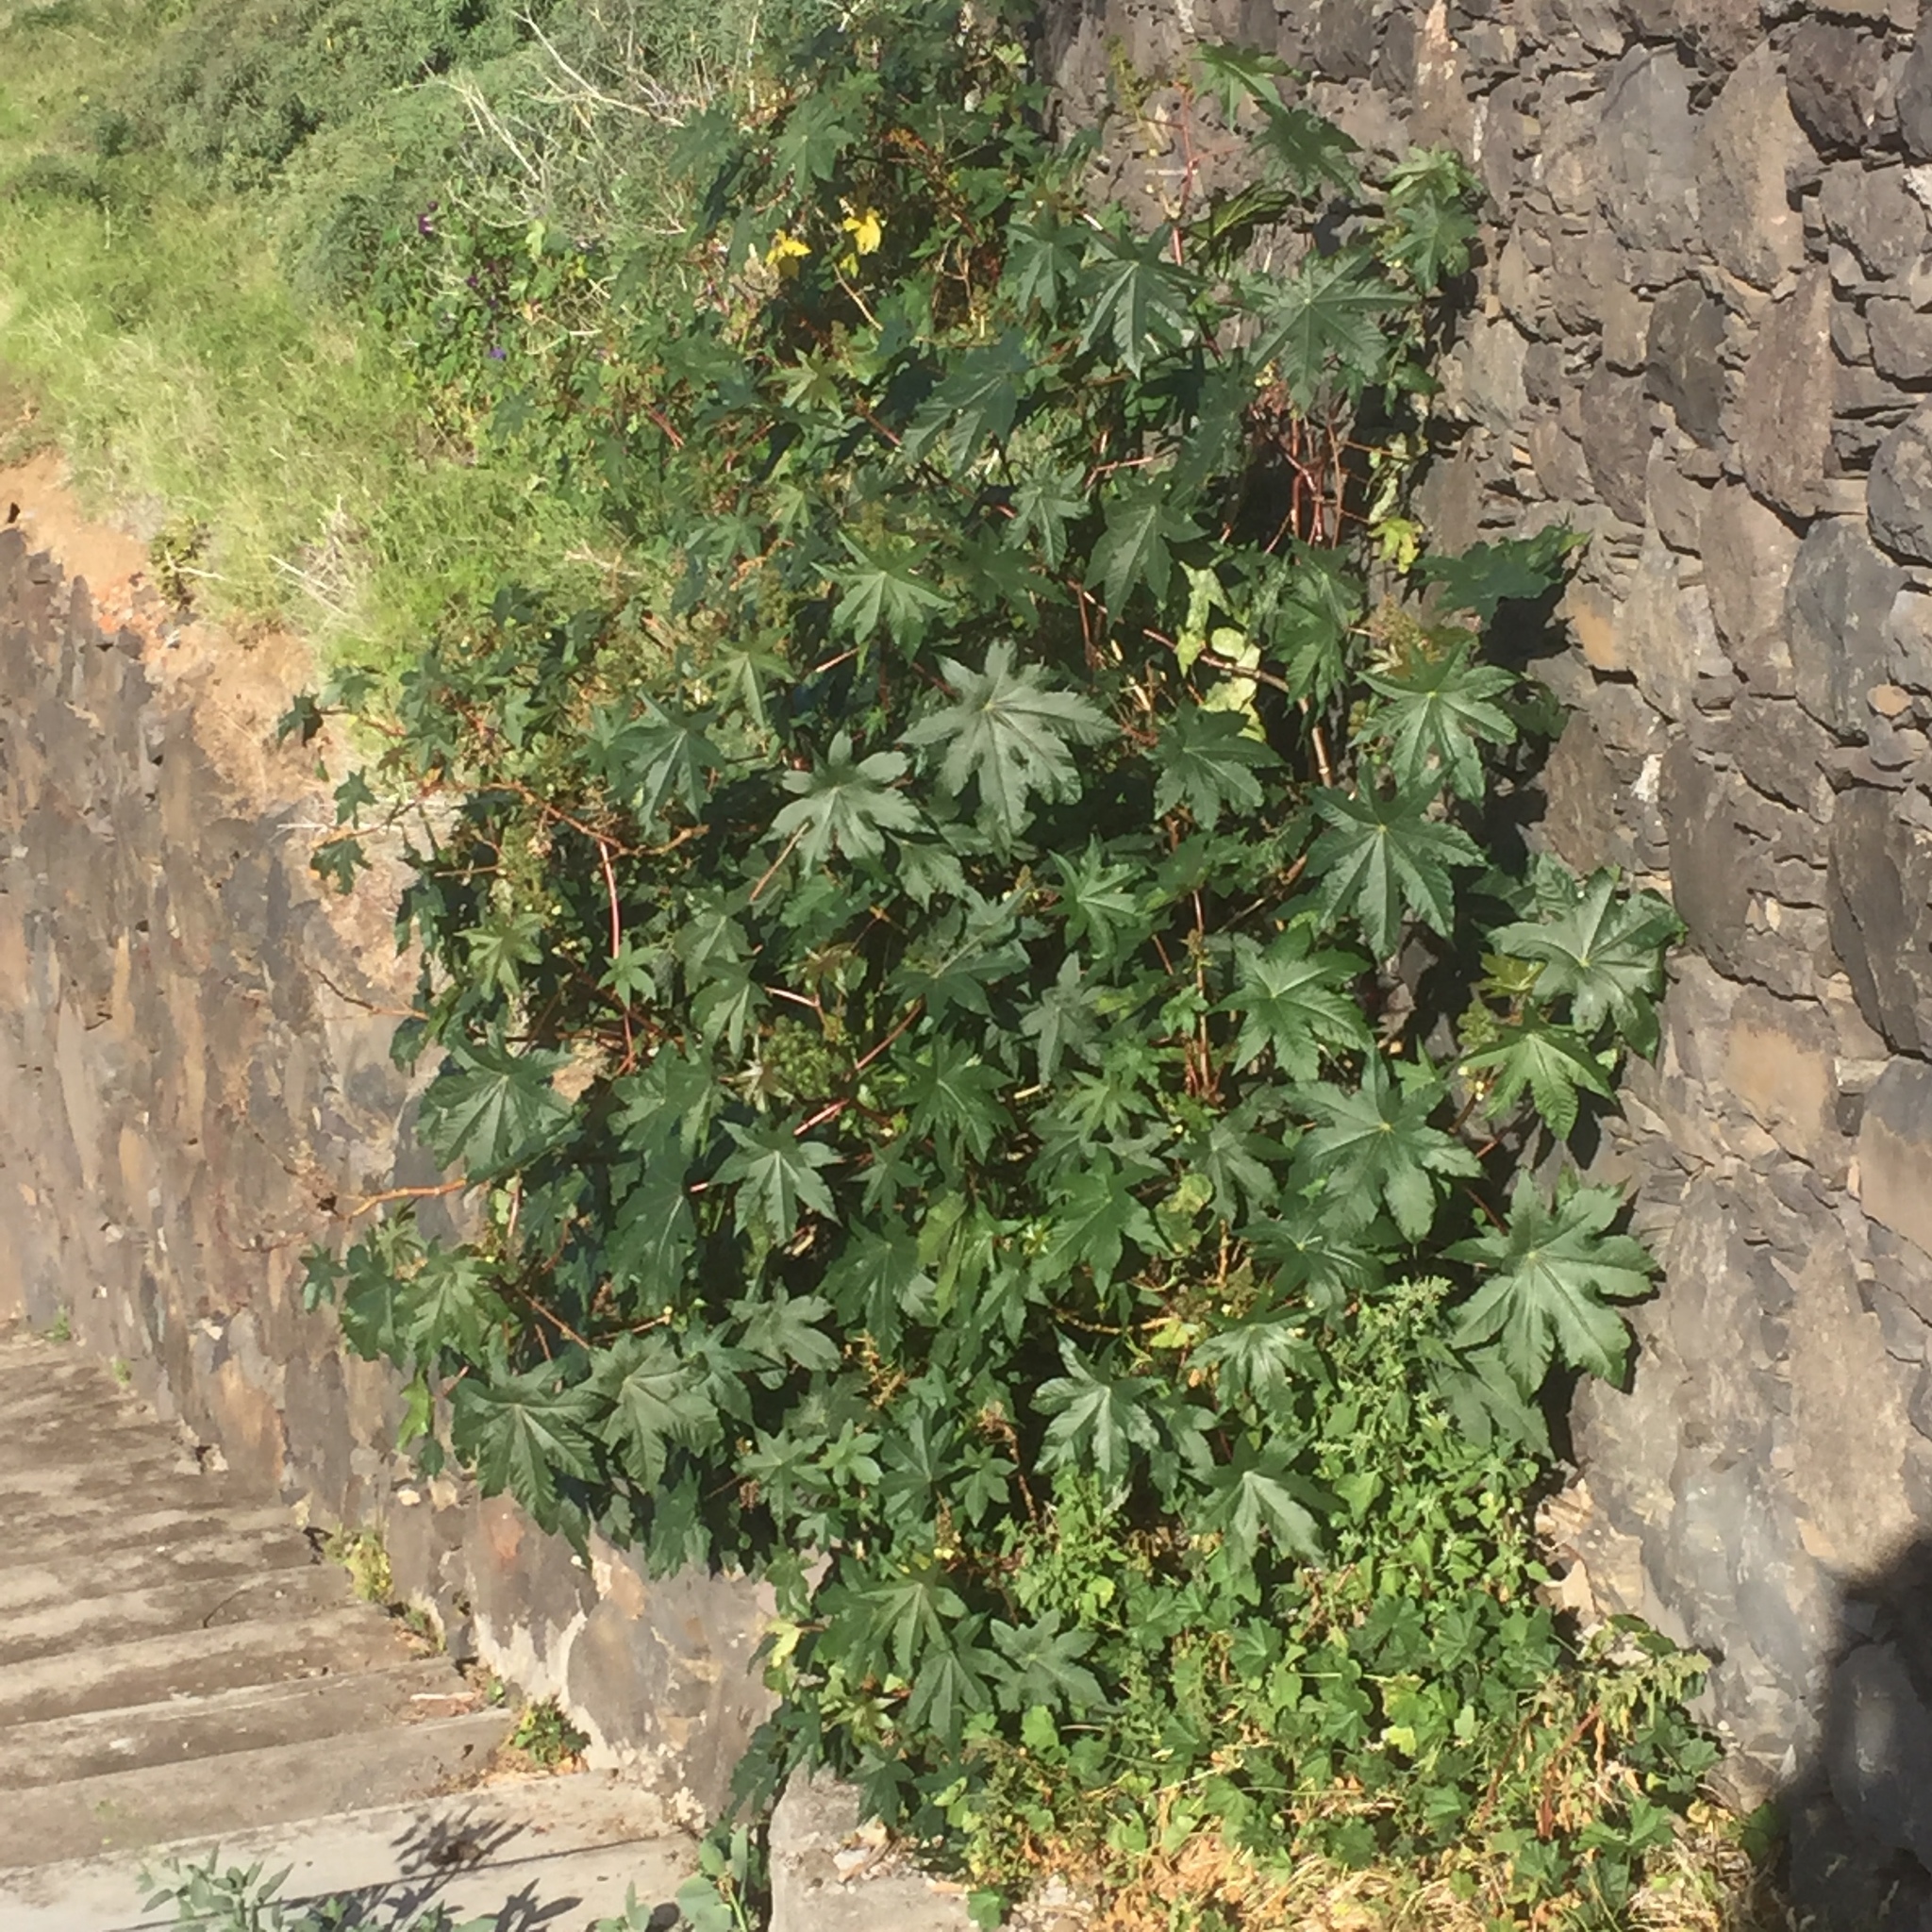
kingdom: Plantae
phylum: Tracheophyta
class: Magnoliopsida
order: Malpighiales
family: Euphorbiaceae
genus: Ricinus
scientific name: Ricinus communis
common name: Castor-oil-plant
